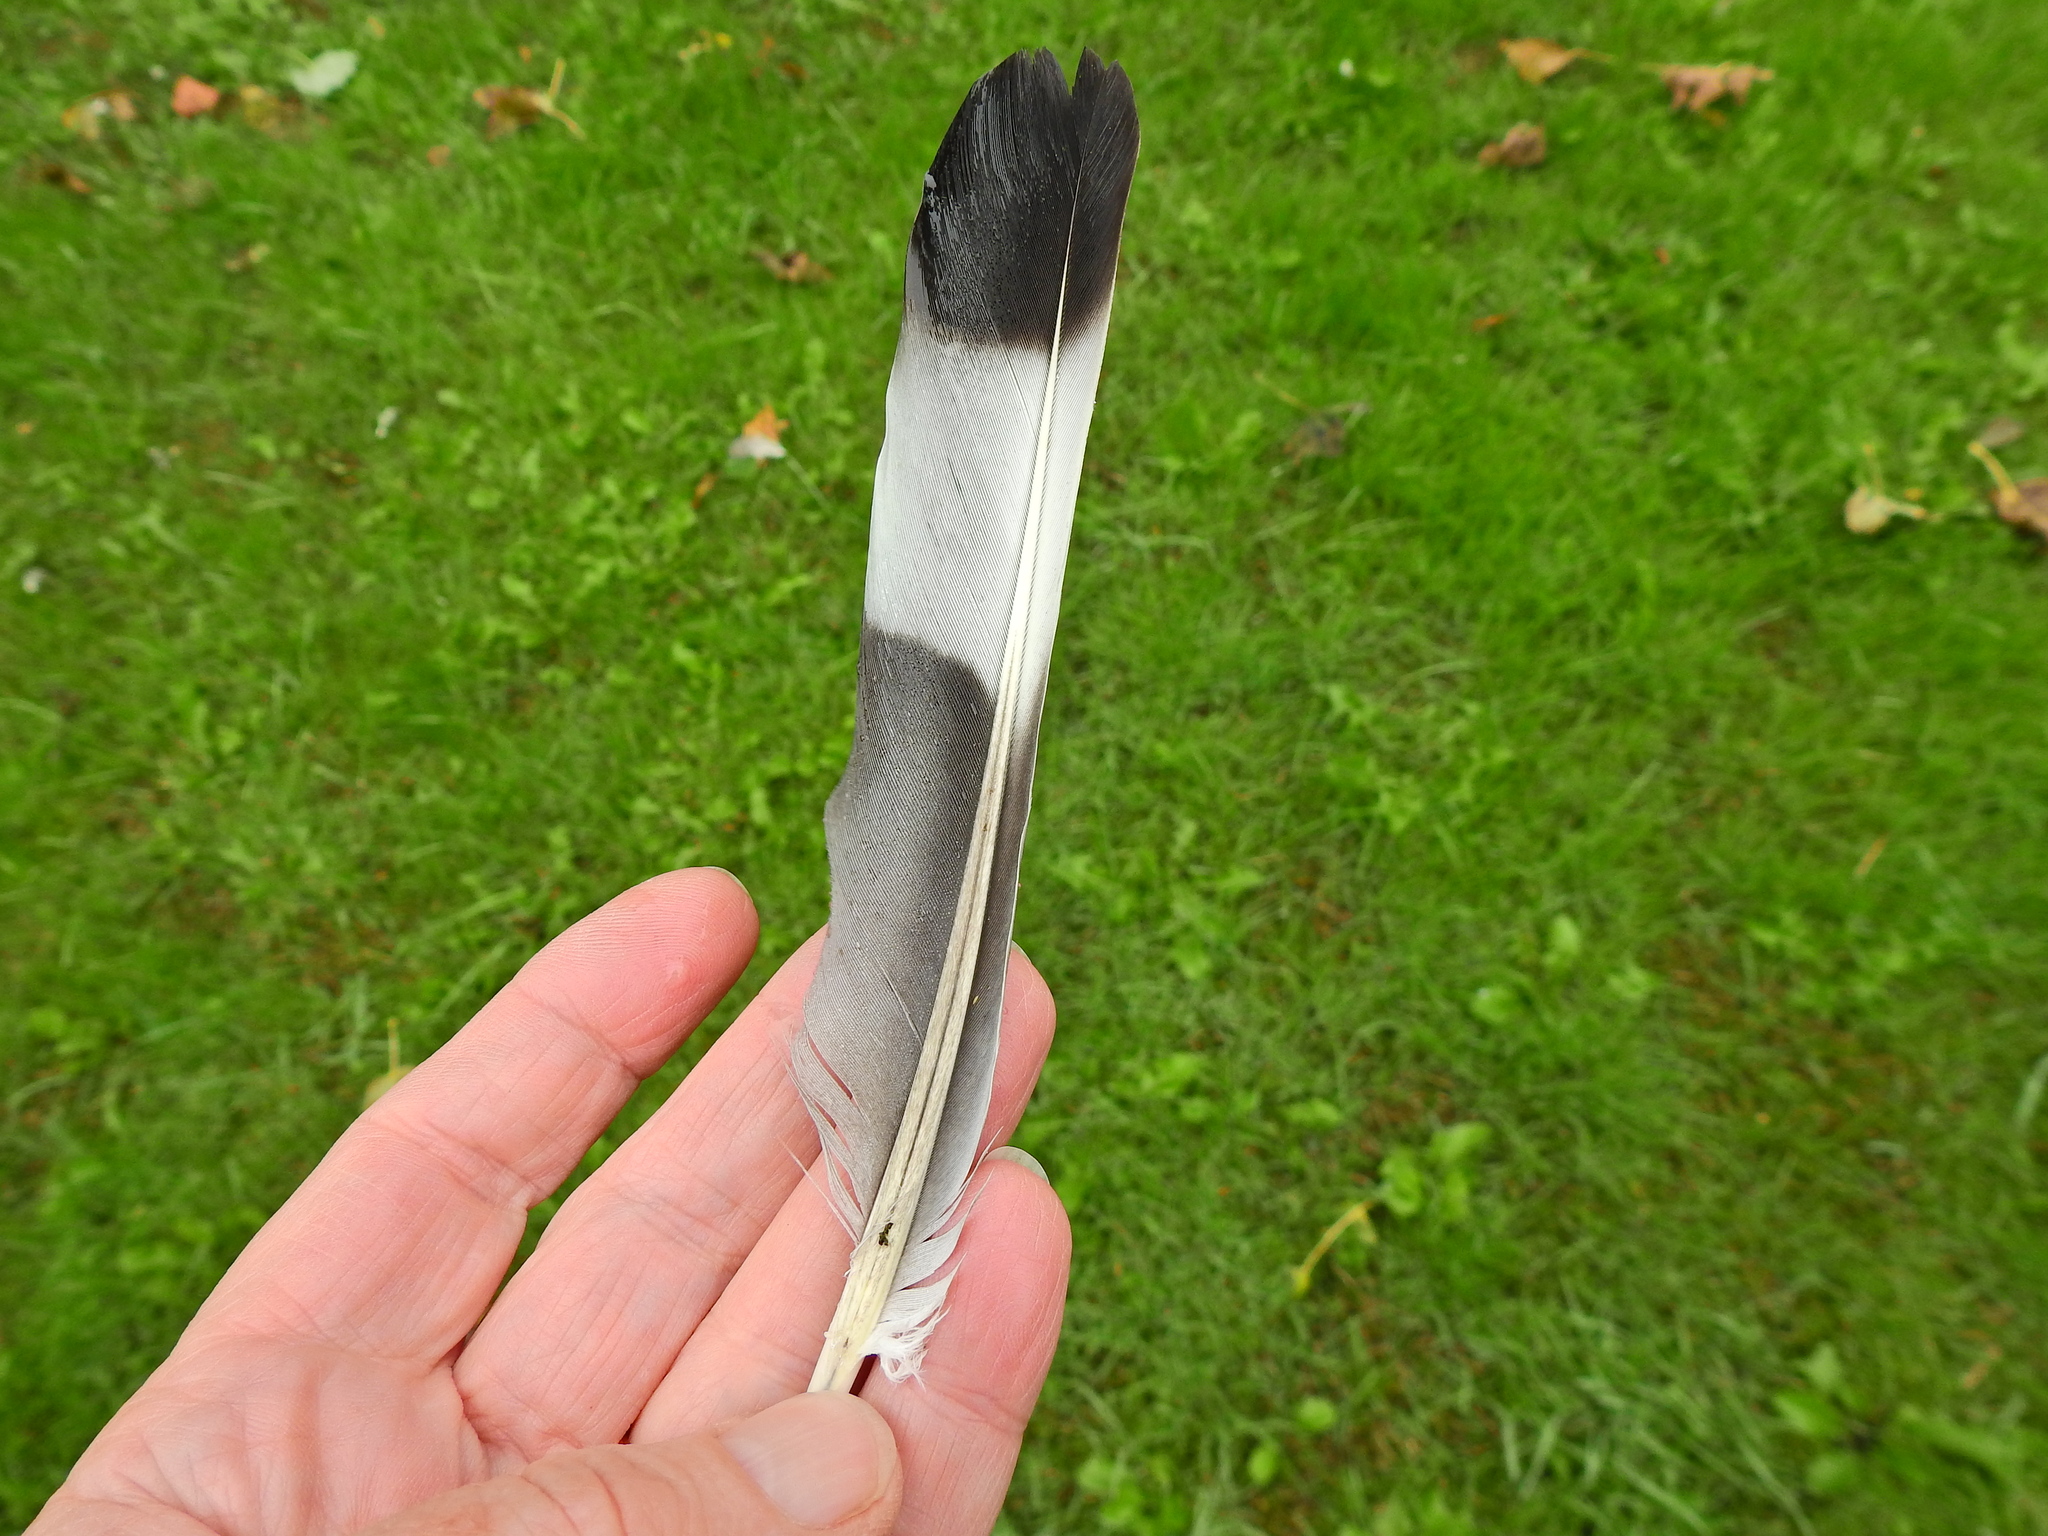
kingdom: Animalia
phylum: Chordata
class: Aves
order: Columbiformes
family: Columbidae
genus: Columba
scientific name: Columba palumbus
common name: Common wood pigeon
